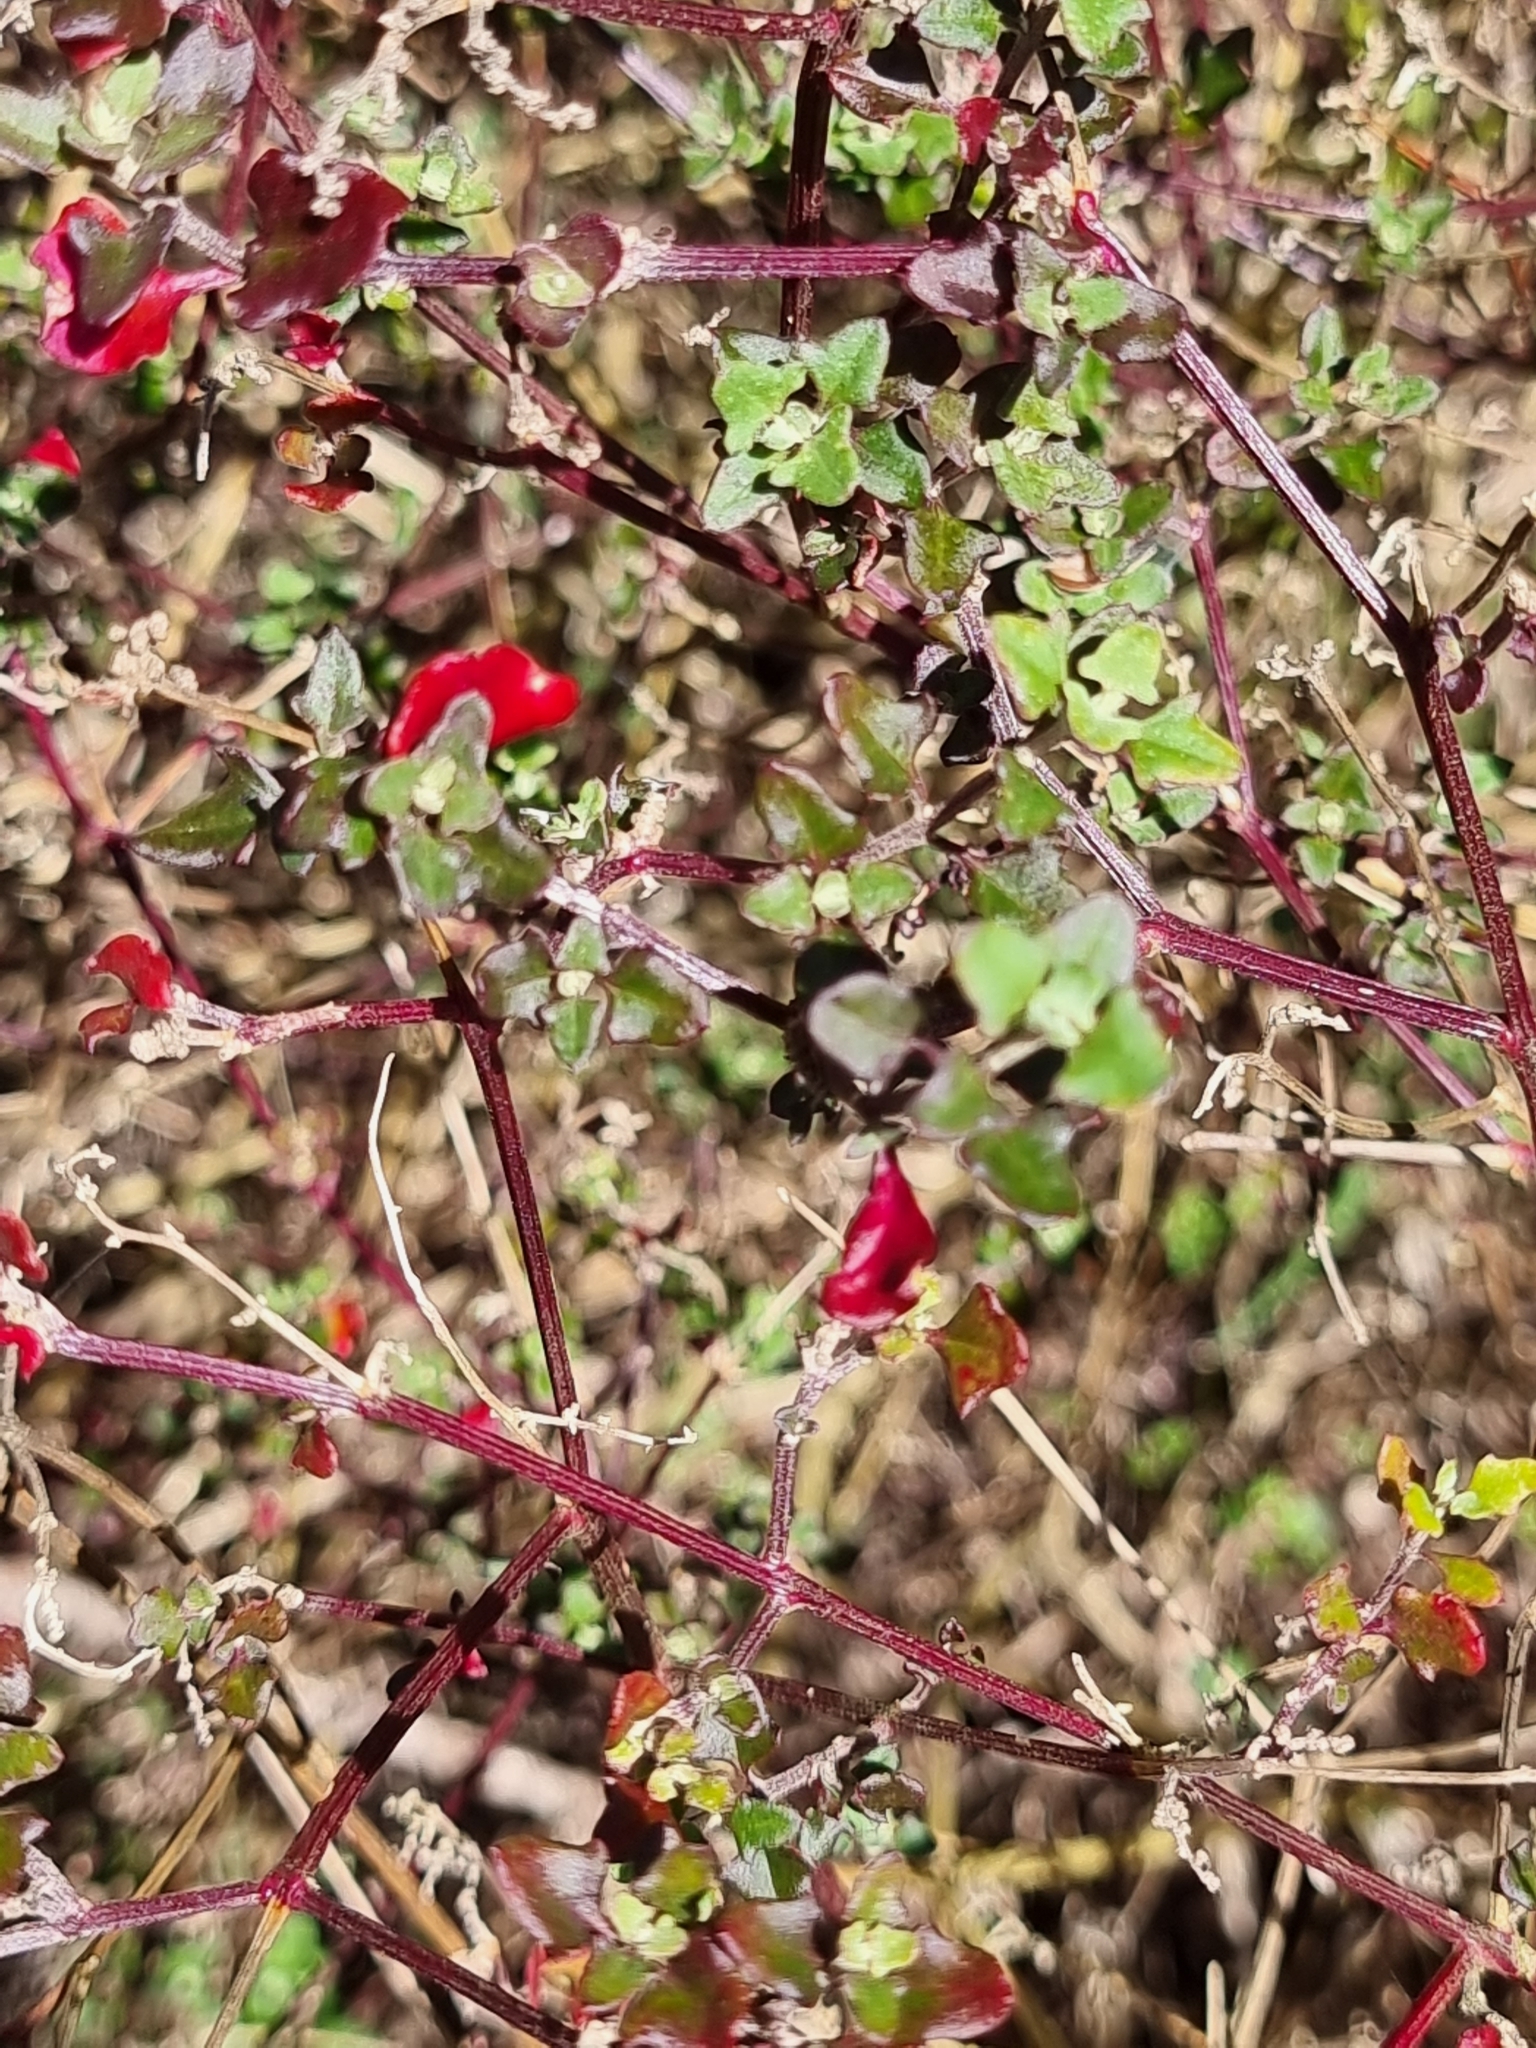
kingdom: Plantae
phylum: Tracheophyta
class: Magnoliopsida
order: Caryophyllales
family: Amaranthaceae
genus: Chenopodium
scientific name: Chenopodium robertianum
